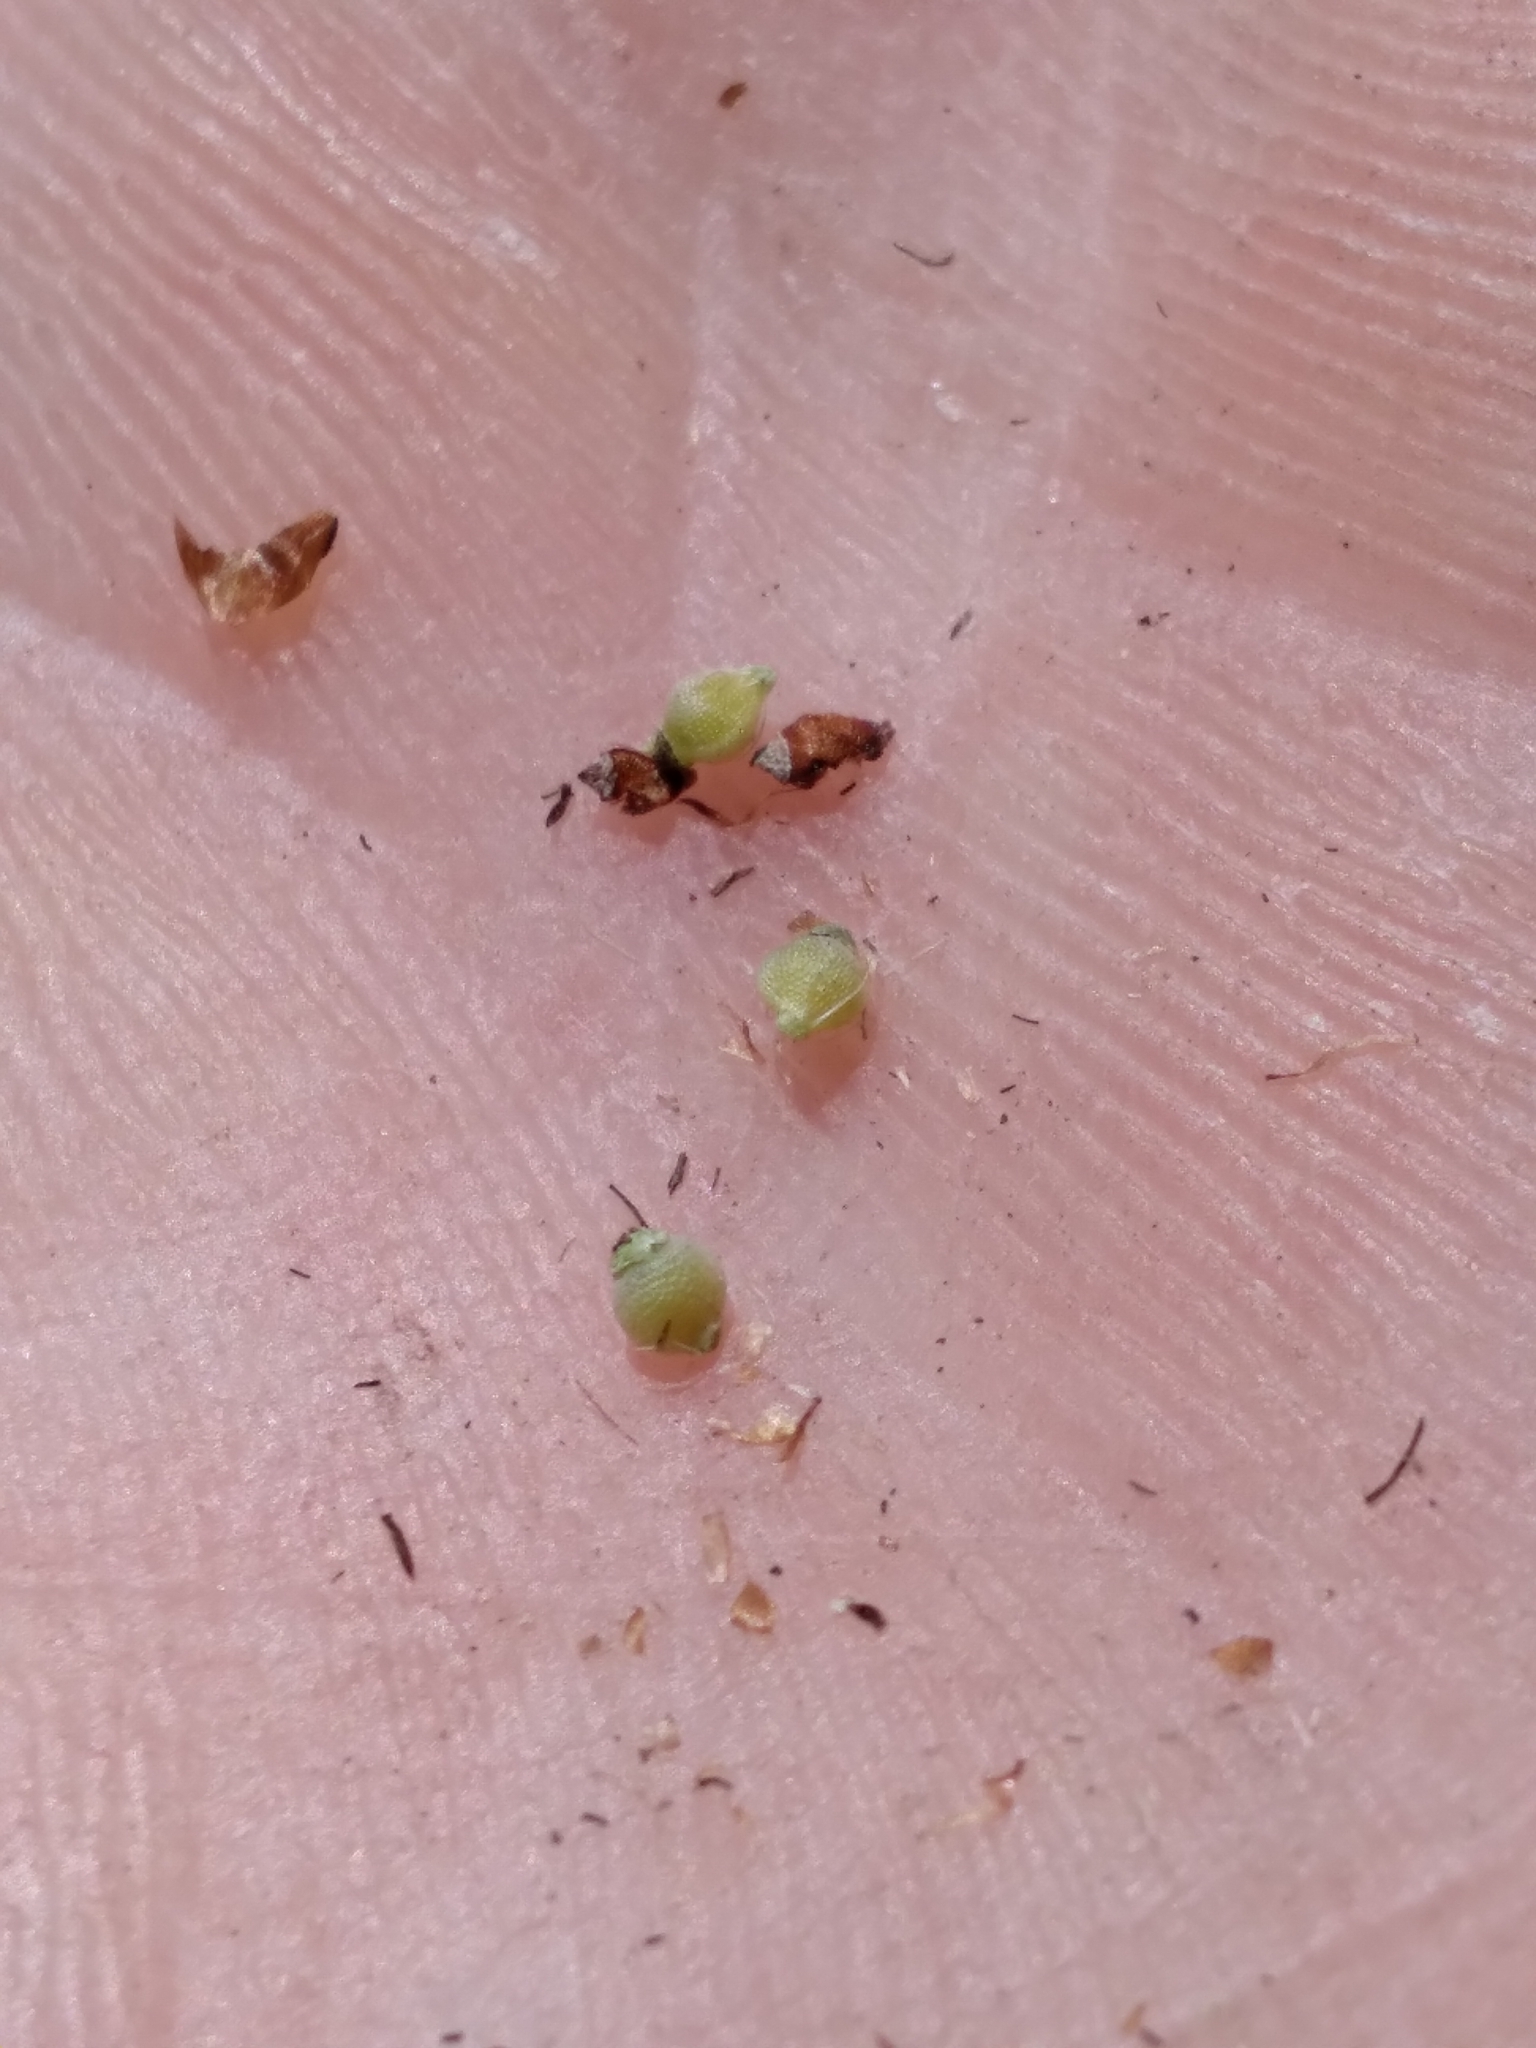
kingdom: Plantae
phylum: Tracheophyta
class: Liliopsida
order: Poales
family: Cyperaceae
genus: Rhynchospora
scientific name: Rhynchospora globularis
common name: Globe beaksedge
